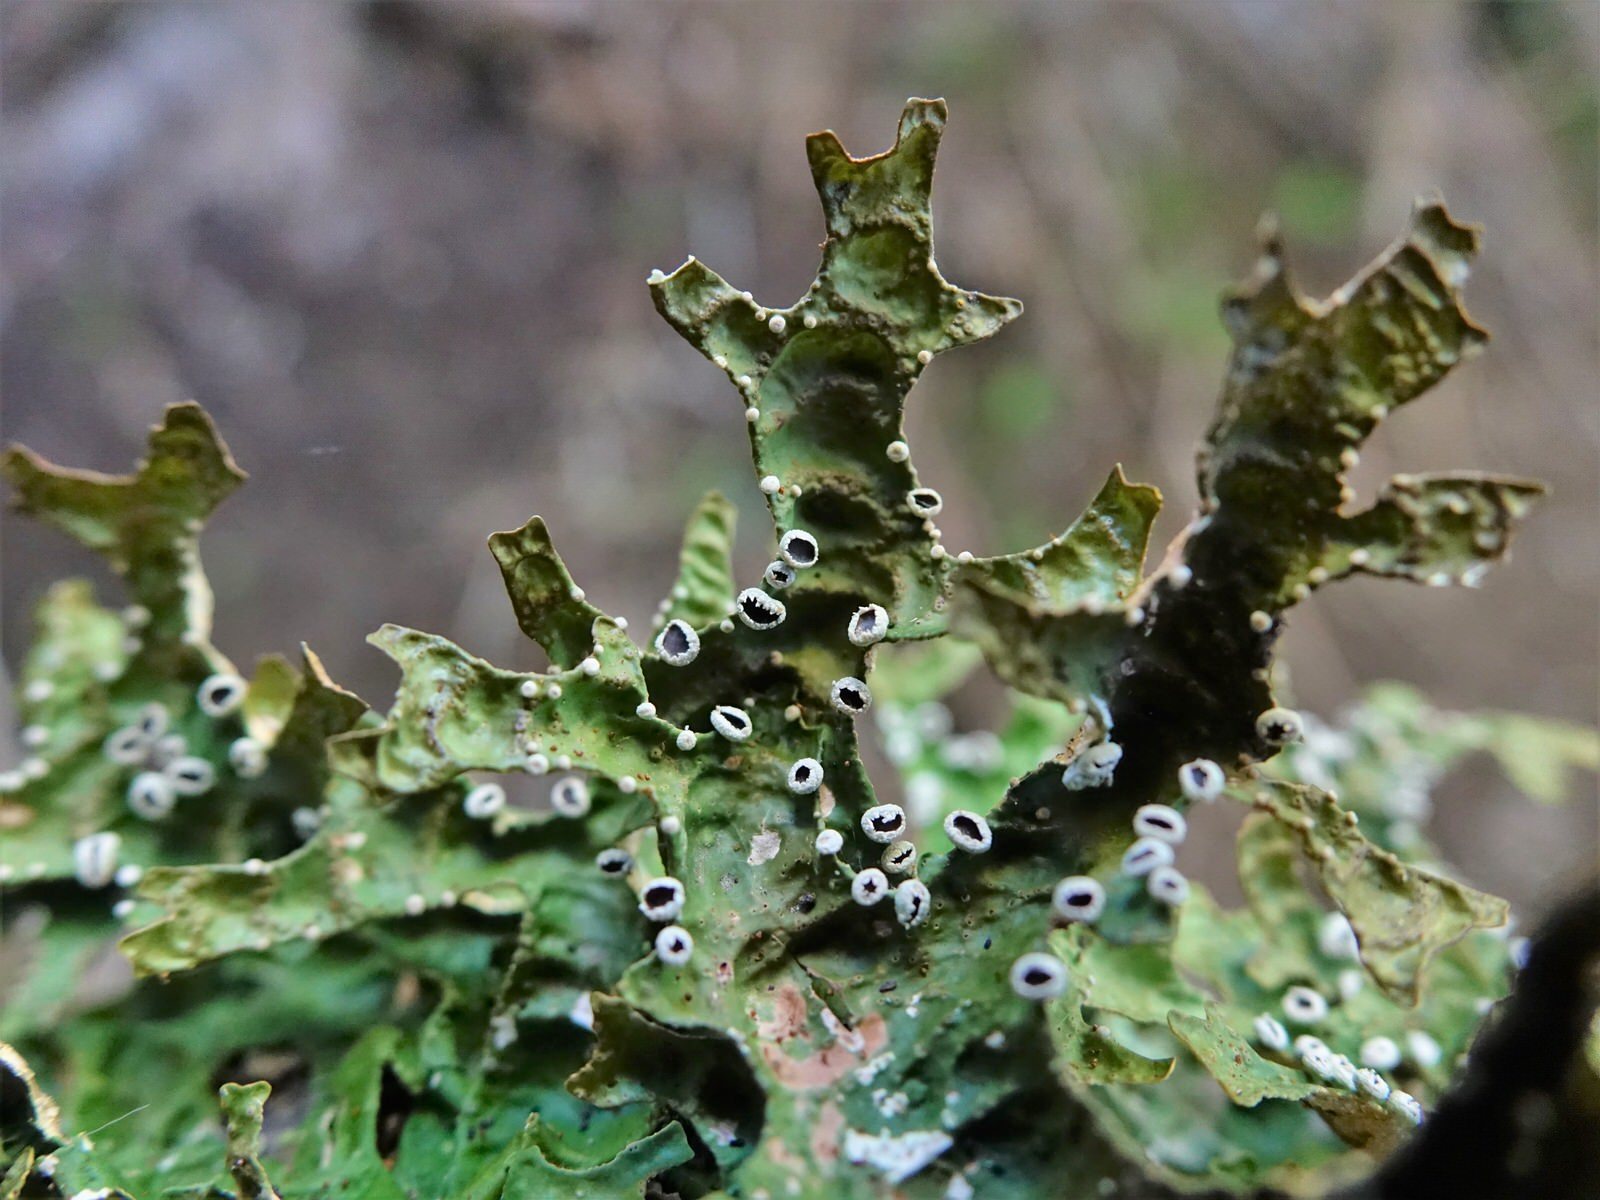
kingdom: Fungi
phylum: Ascomycota
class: Lecanoromycetes
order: Peltigerales
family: Lobariaceae
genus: Pseudocyphellaria
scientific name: Pseudocyphellaria rufovirescens
